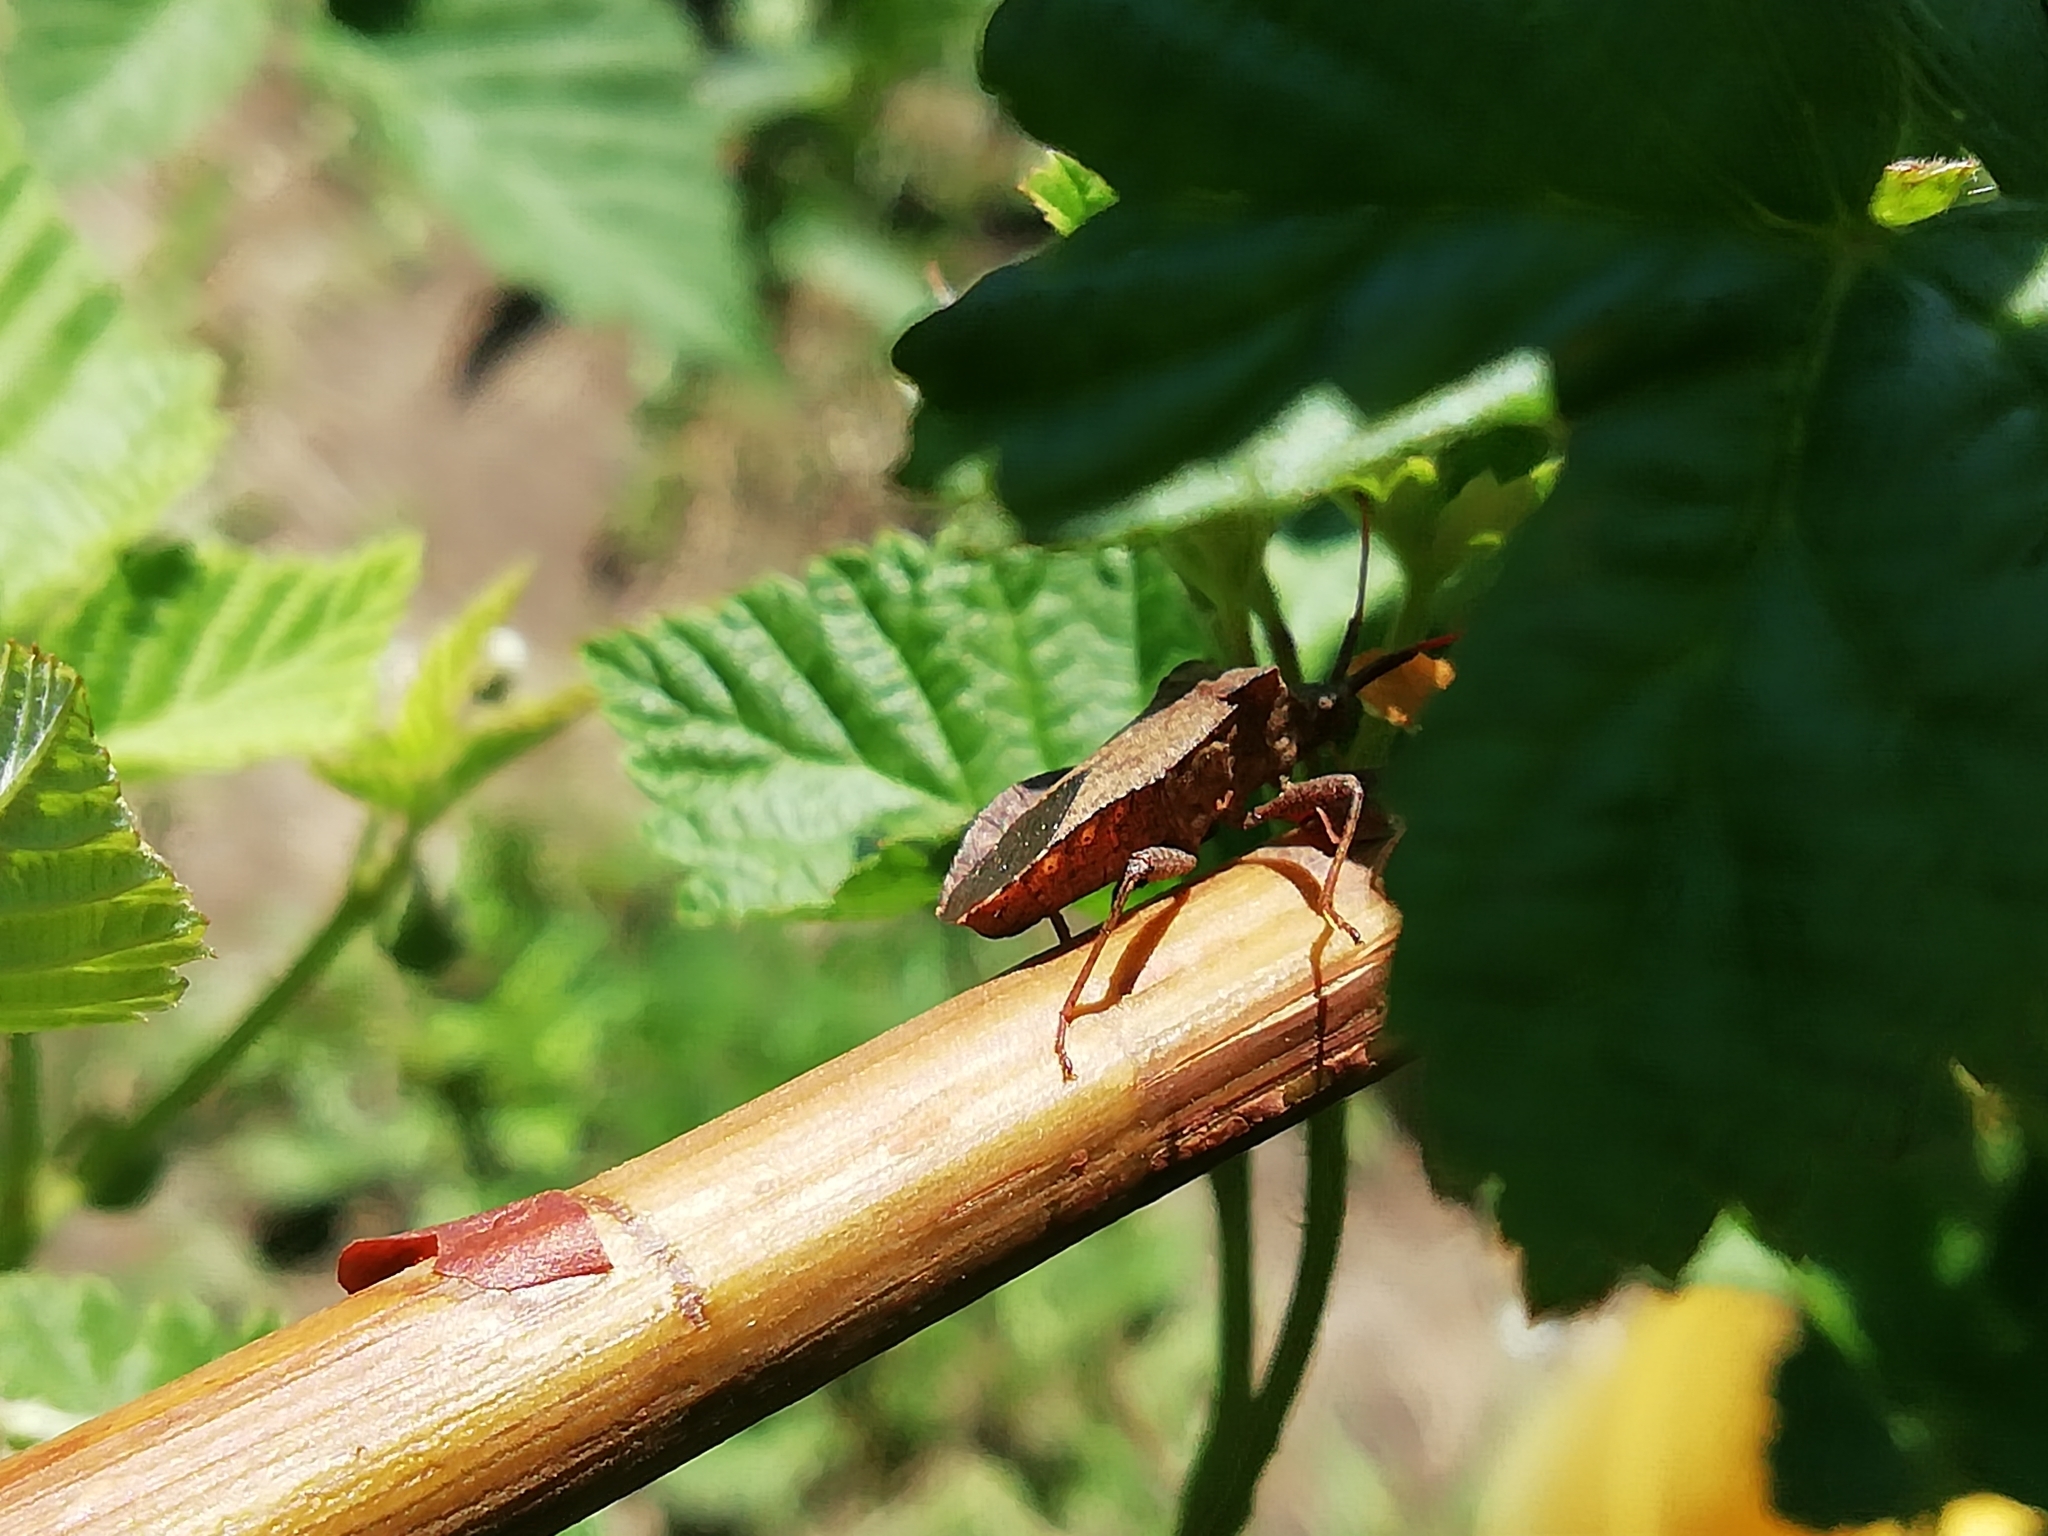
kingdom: Animalia
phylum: Arthropoda
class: Insecta
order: Hemiptera
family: Coreidae
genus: Coreus
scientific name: Coreus marginatus
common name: Dock bug
